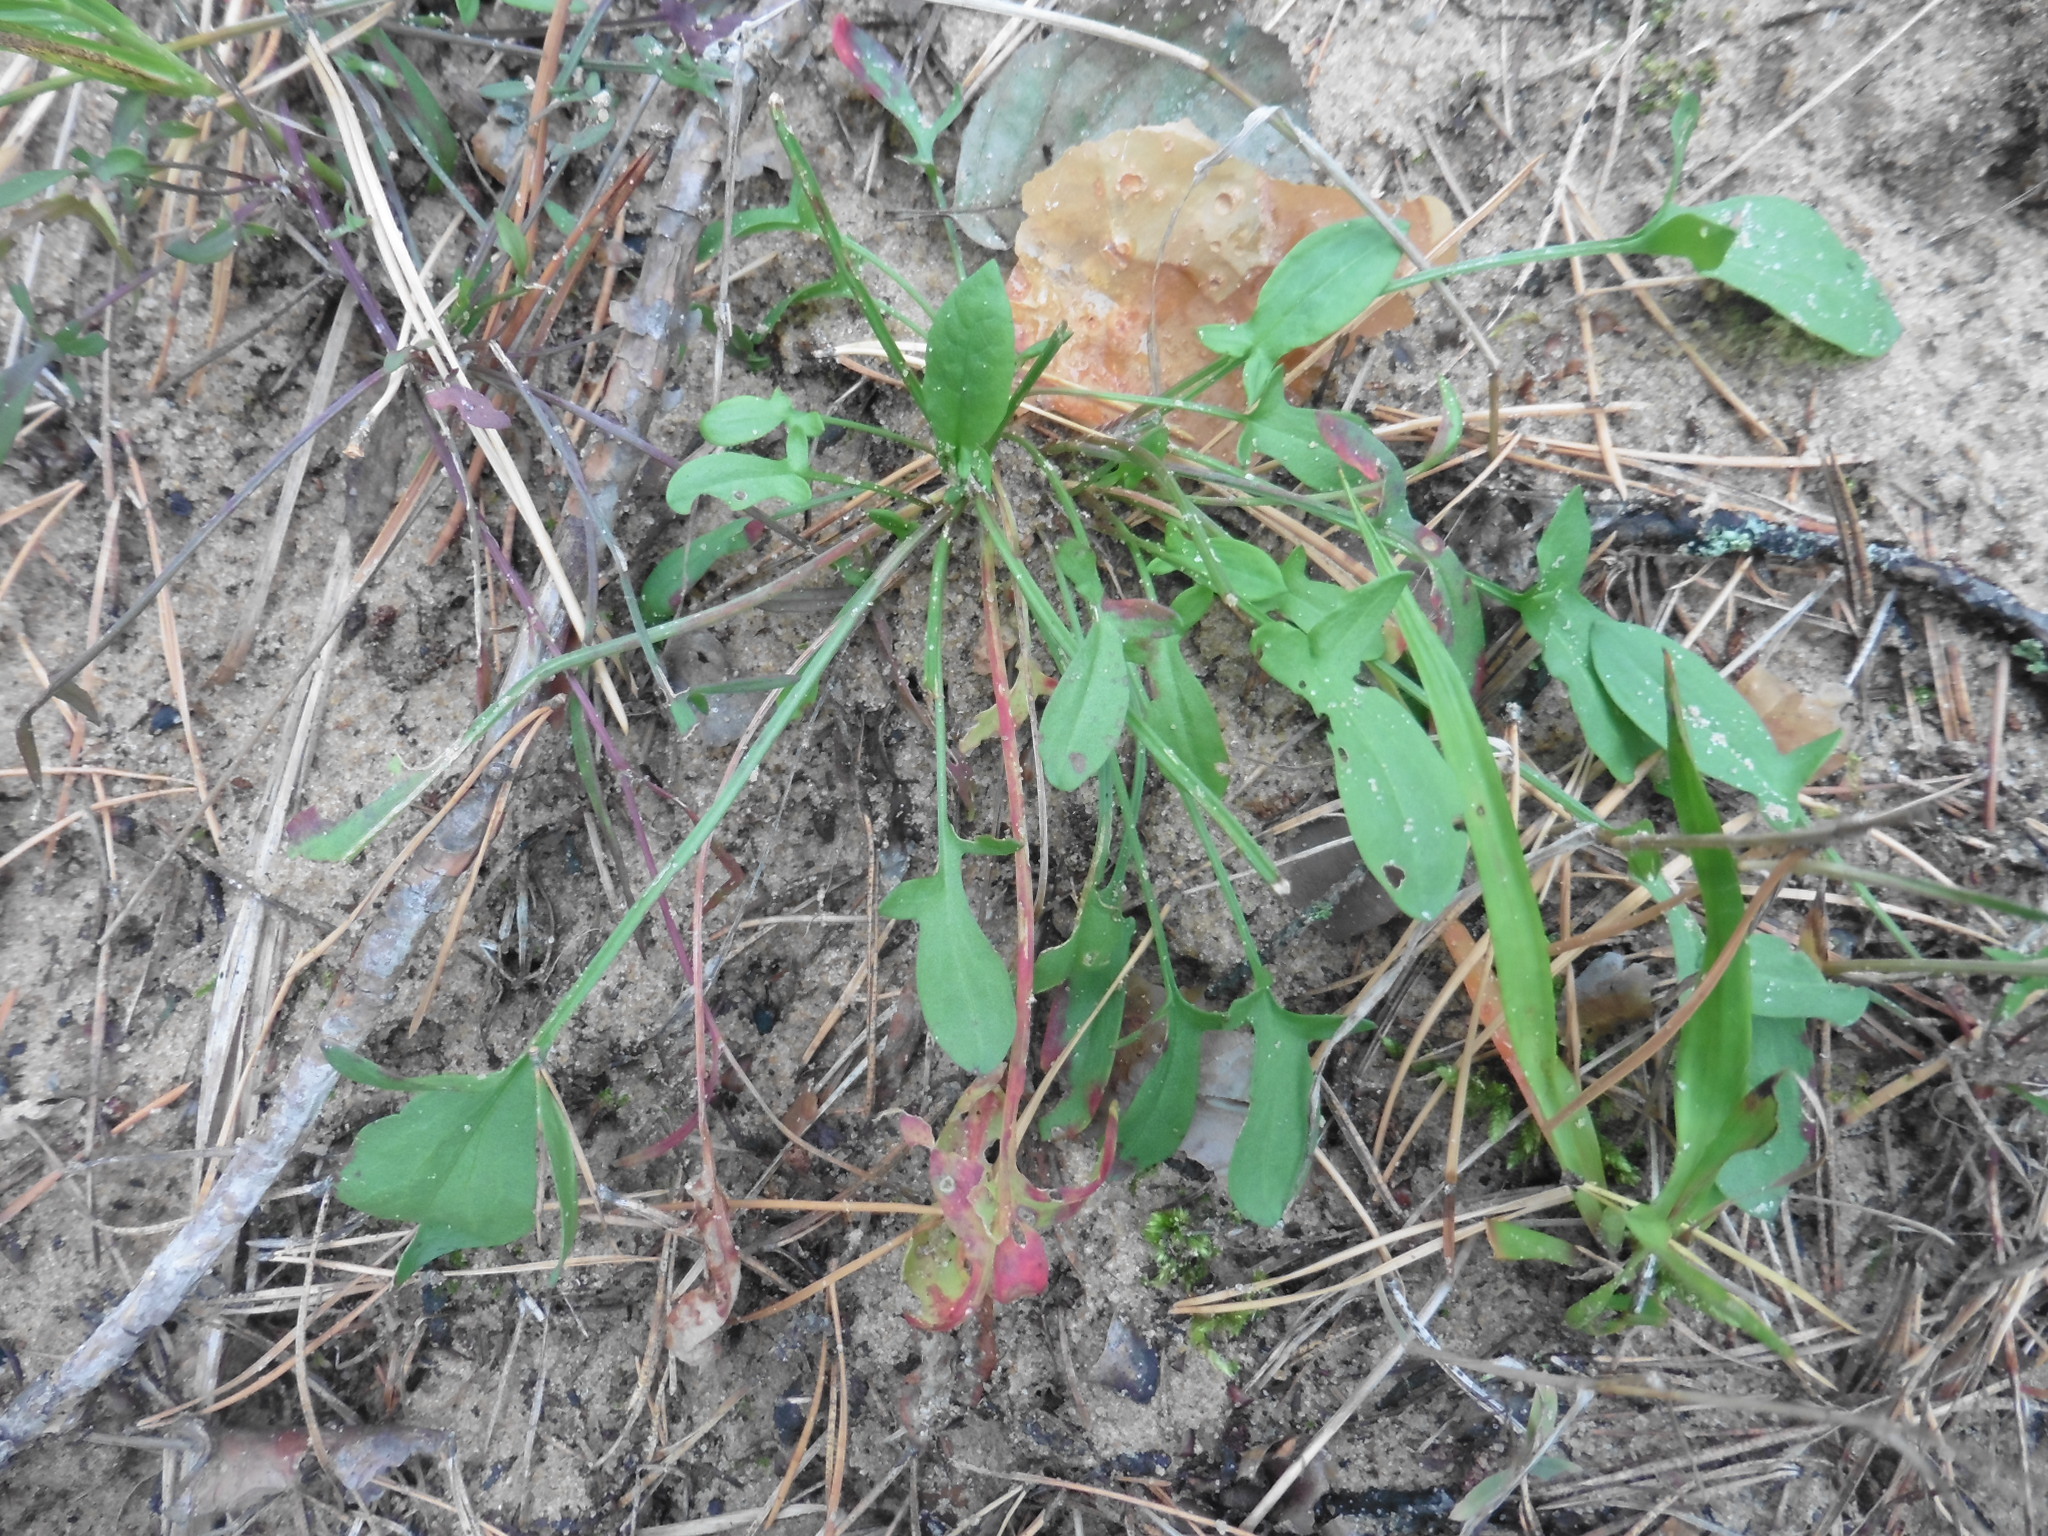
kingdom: Plantae
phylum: Tracheophyta
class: Magnoliopsida
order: Caryophyllales
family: Polygonaceae
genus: Rumex
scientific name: Rumex acetosella
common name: Common sheep sorrel
